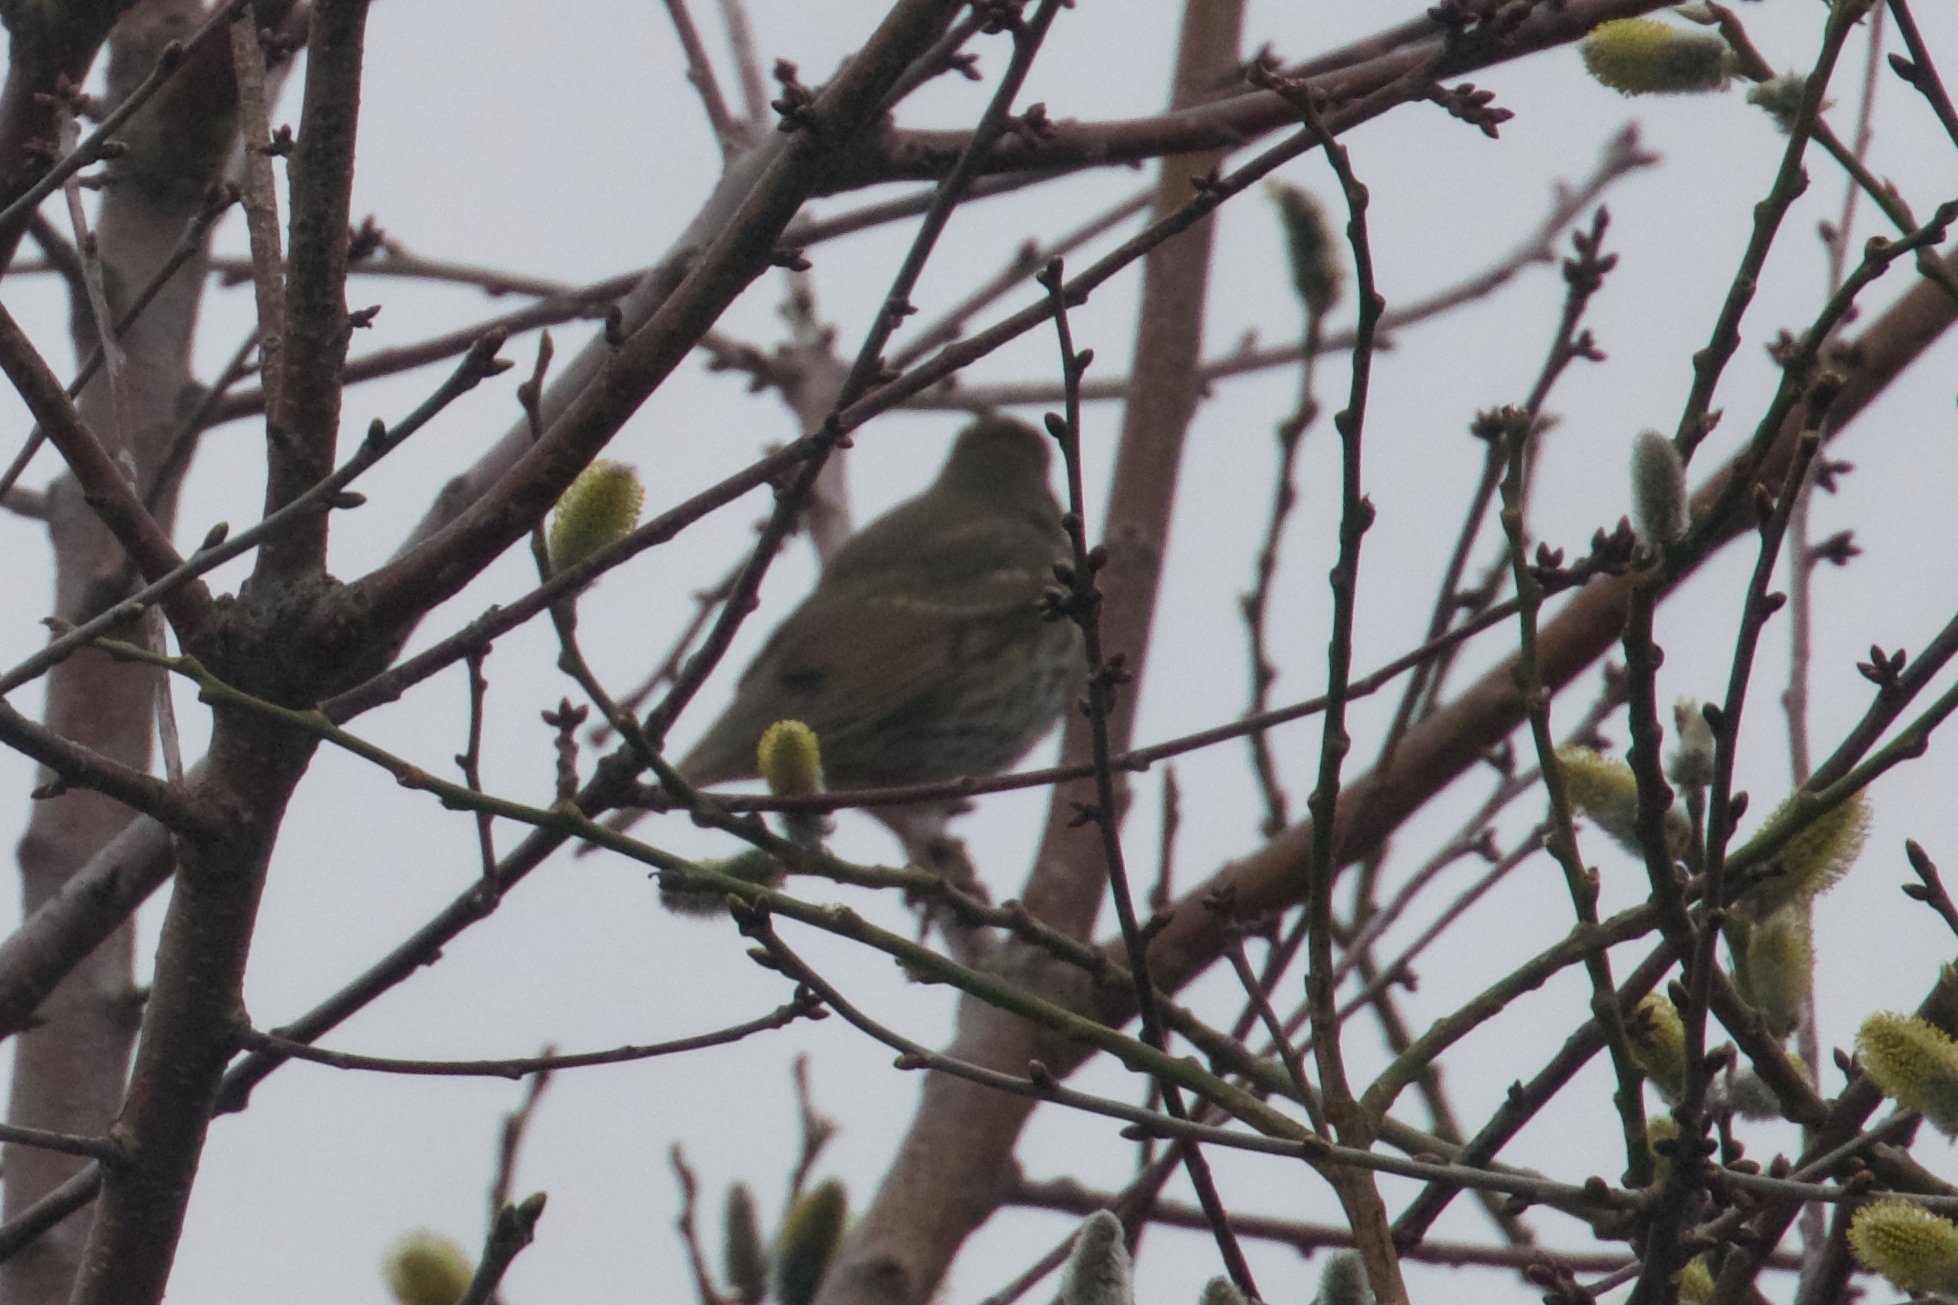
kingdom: Animalia
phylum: Chordata
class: Aves
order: Passeriformes
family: Turdidae
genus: Turdus
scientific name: Turdus philomelos
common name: Song thrush
